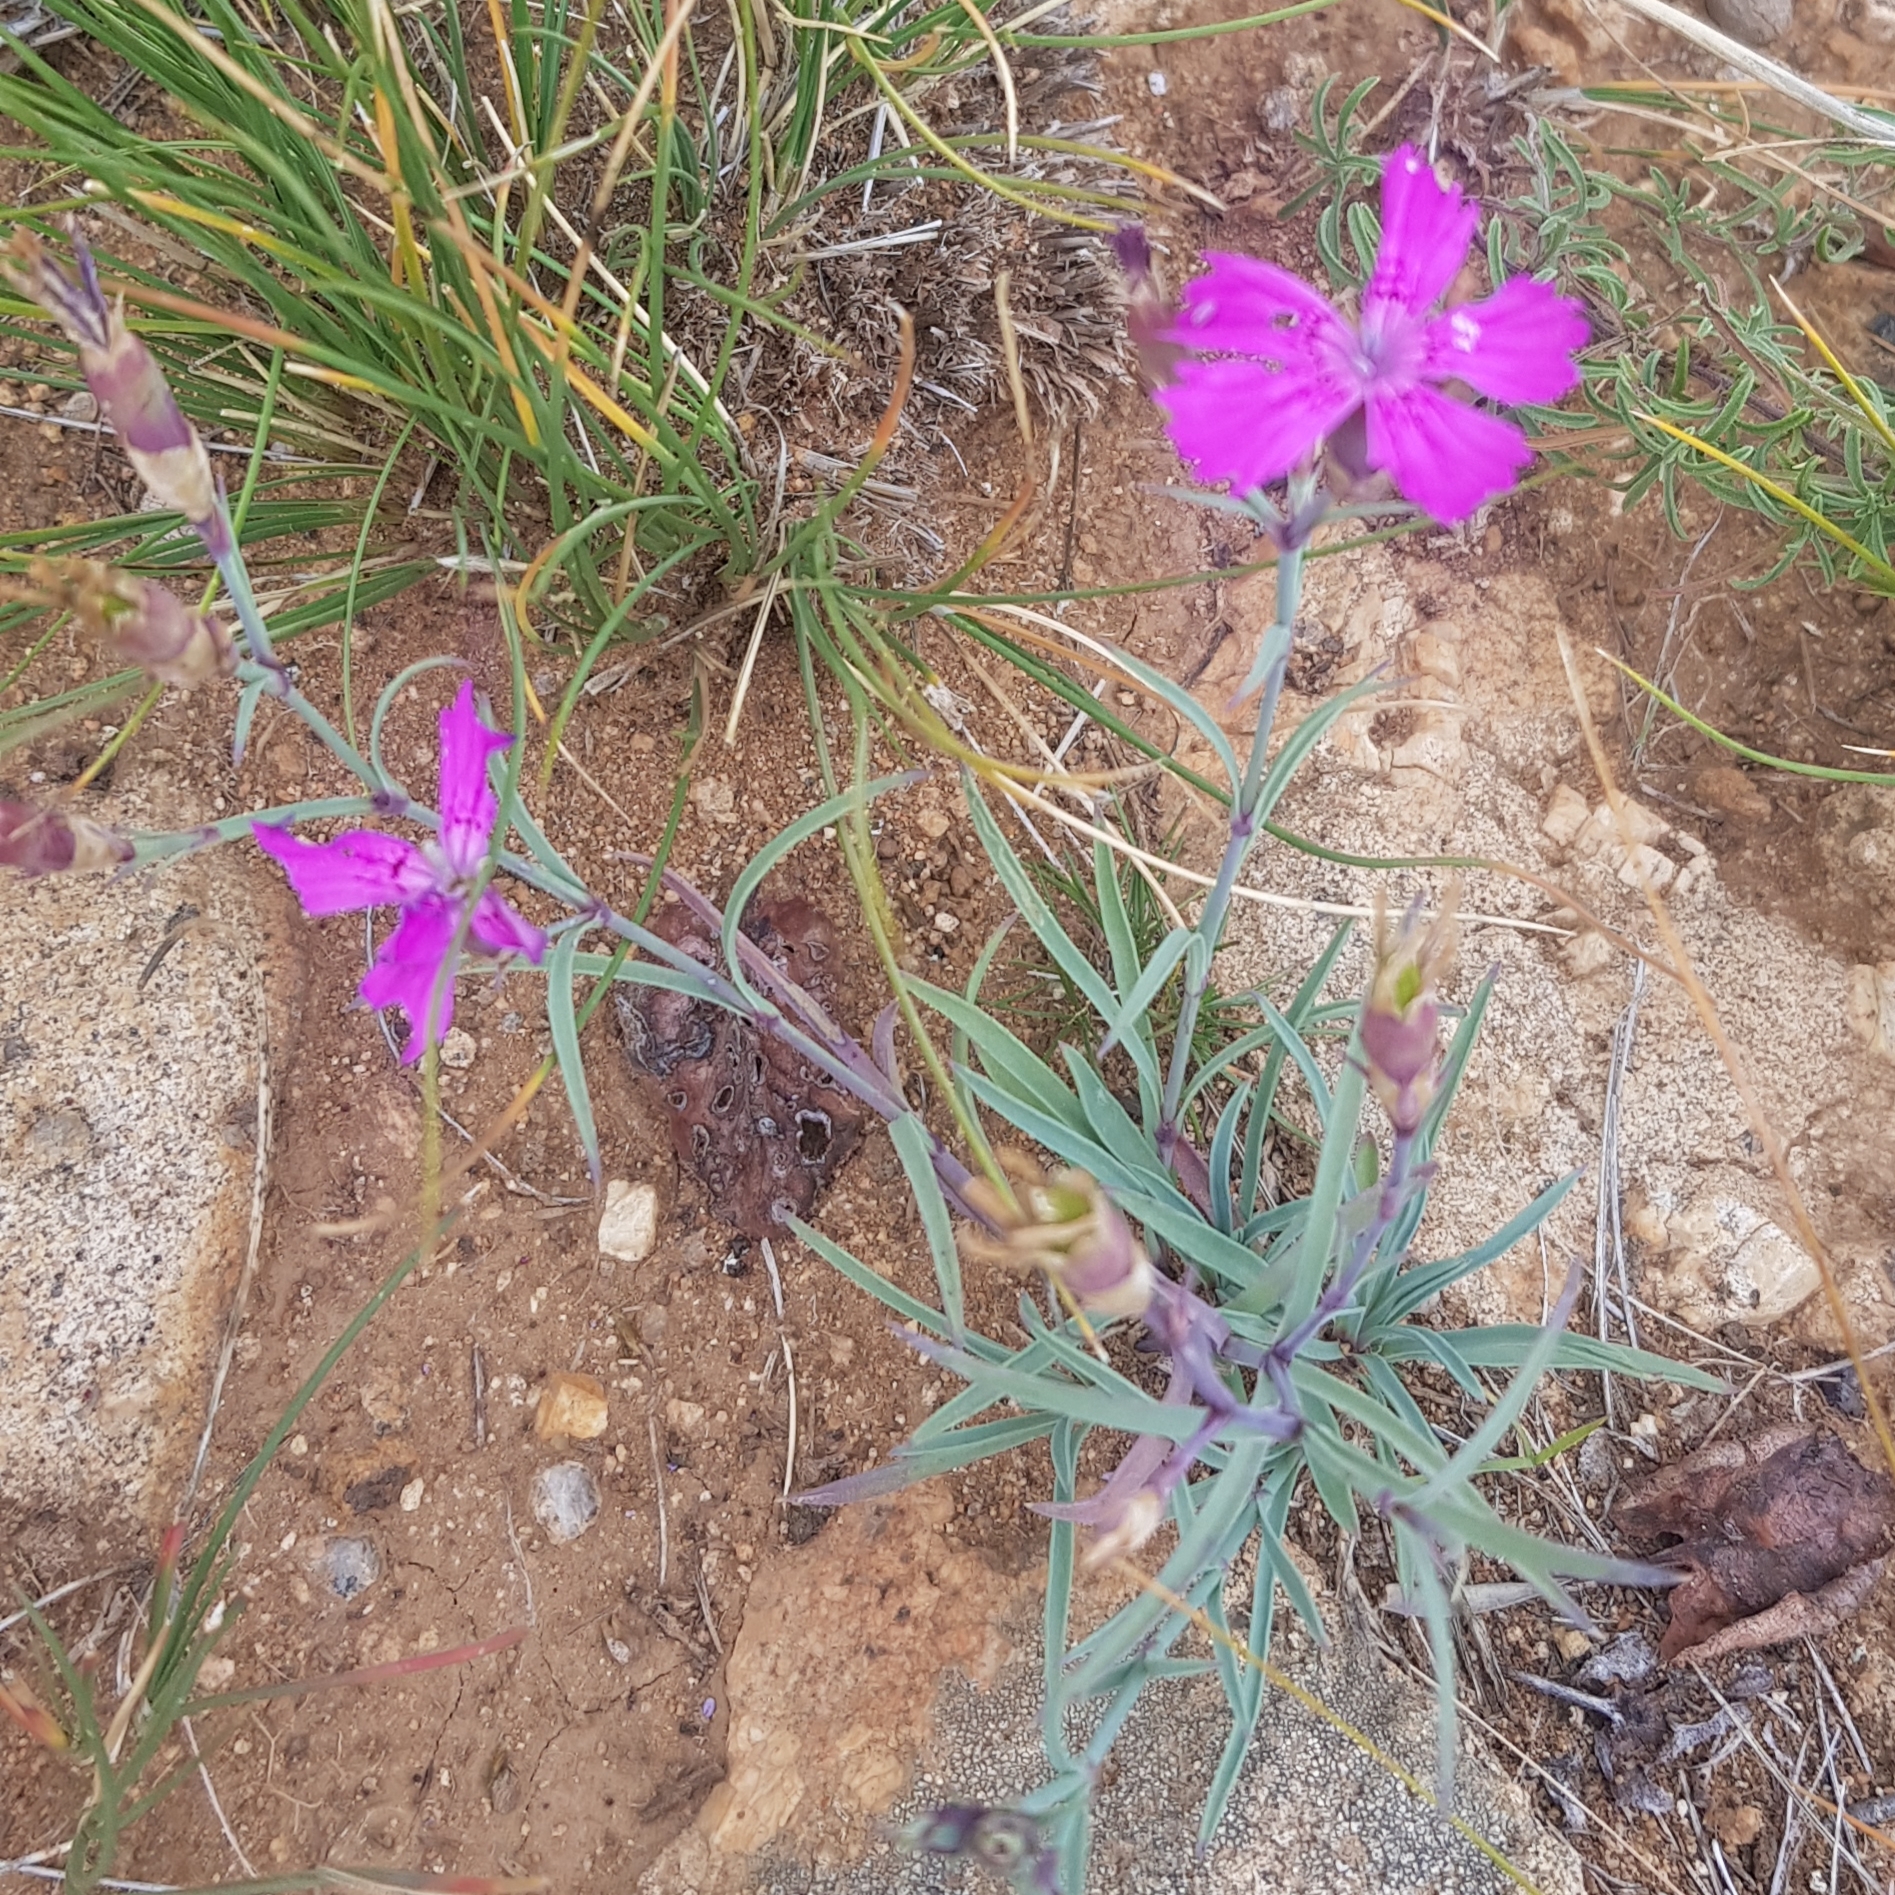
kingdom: Plantae
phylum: Tracheophyta
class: Magnoliopsida
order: Caryophyllales
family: Caryophyllaceae
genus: Dianthus
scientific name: Dianthus chinensis
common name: Rainbow pink
